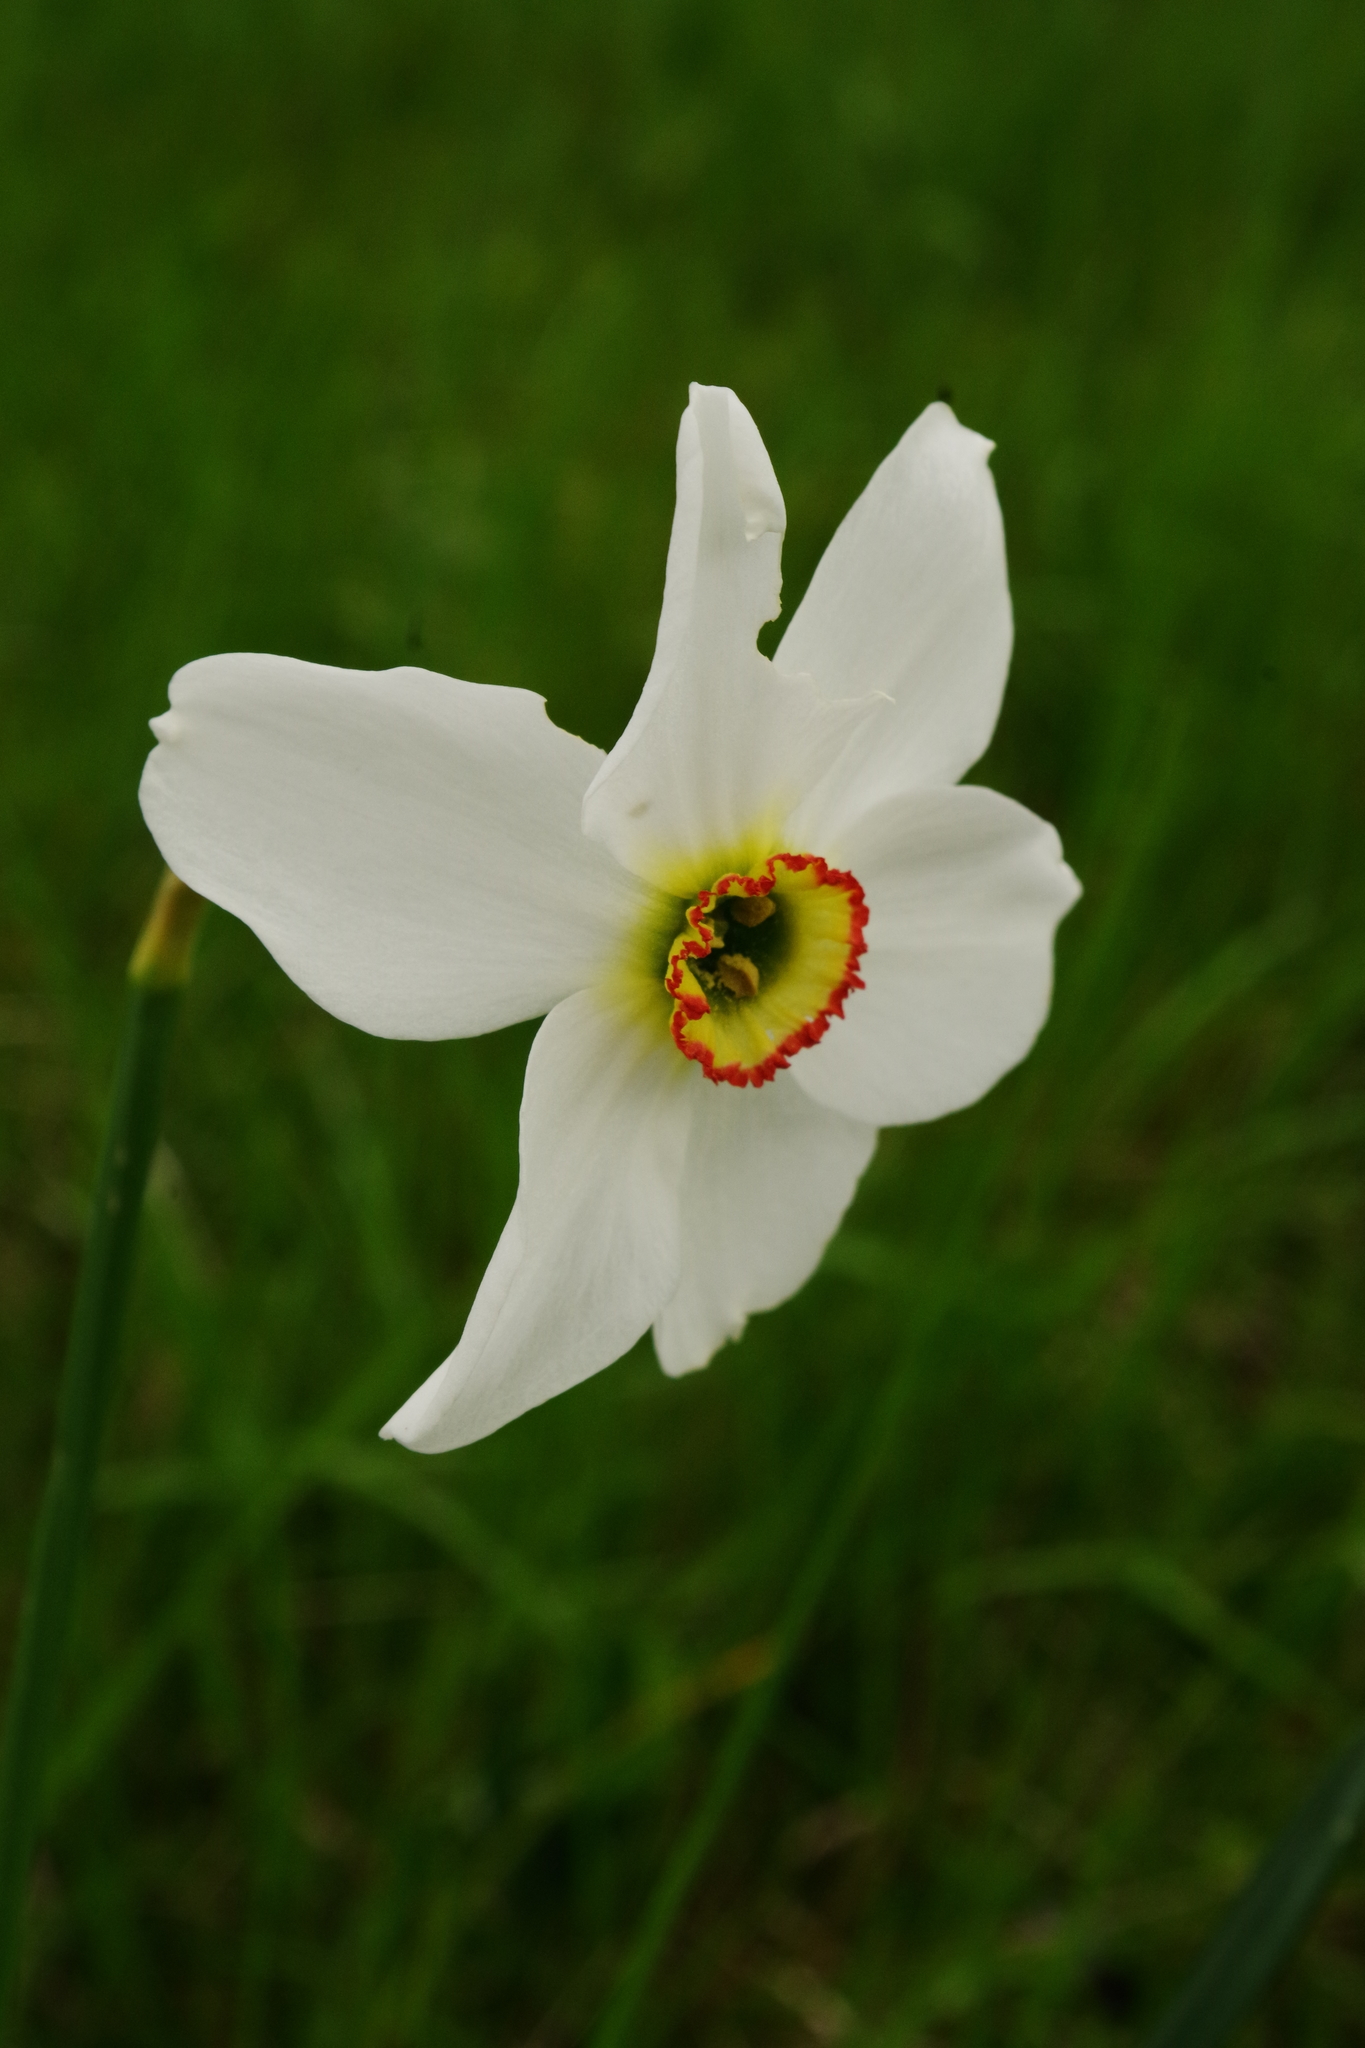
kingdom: Plantae
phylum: Tracheophyta
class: Liliopsida
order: Asparagales
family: Amaryllidaceae
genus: Narcissus
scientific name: Narcissus poeticus
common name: Pheasant's-eye daffodil
